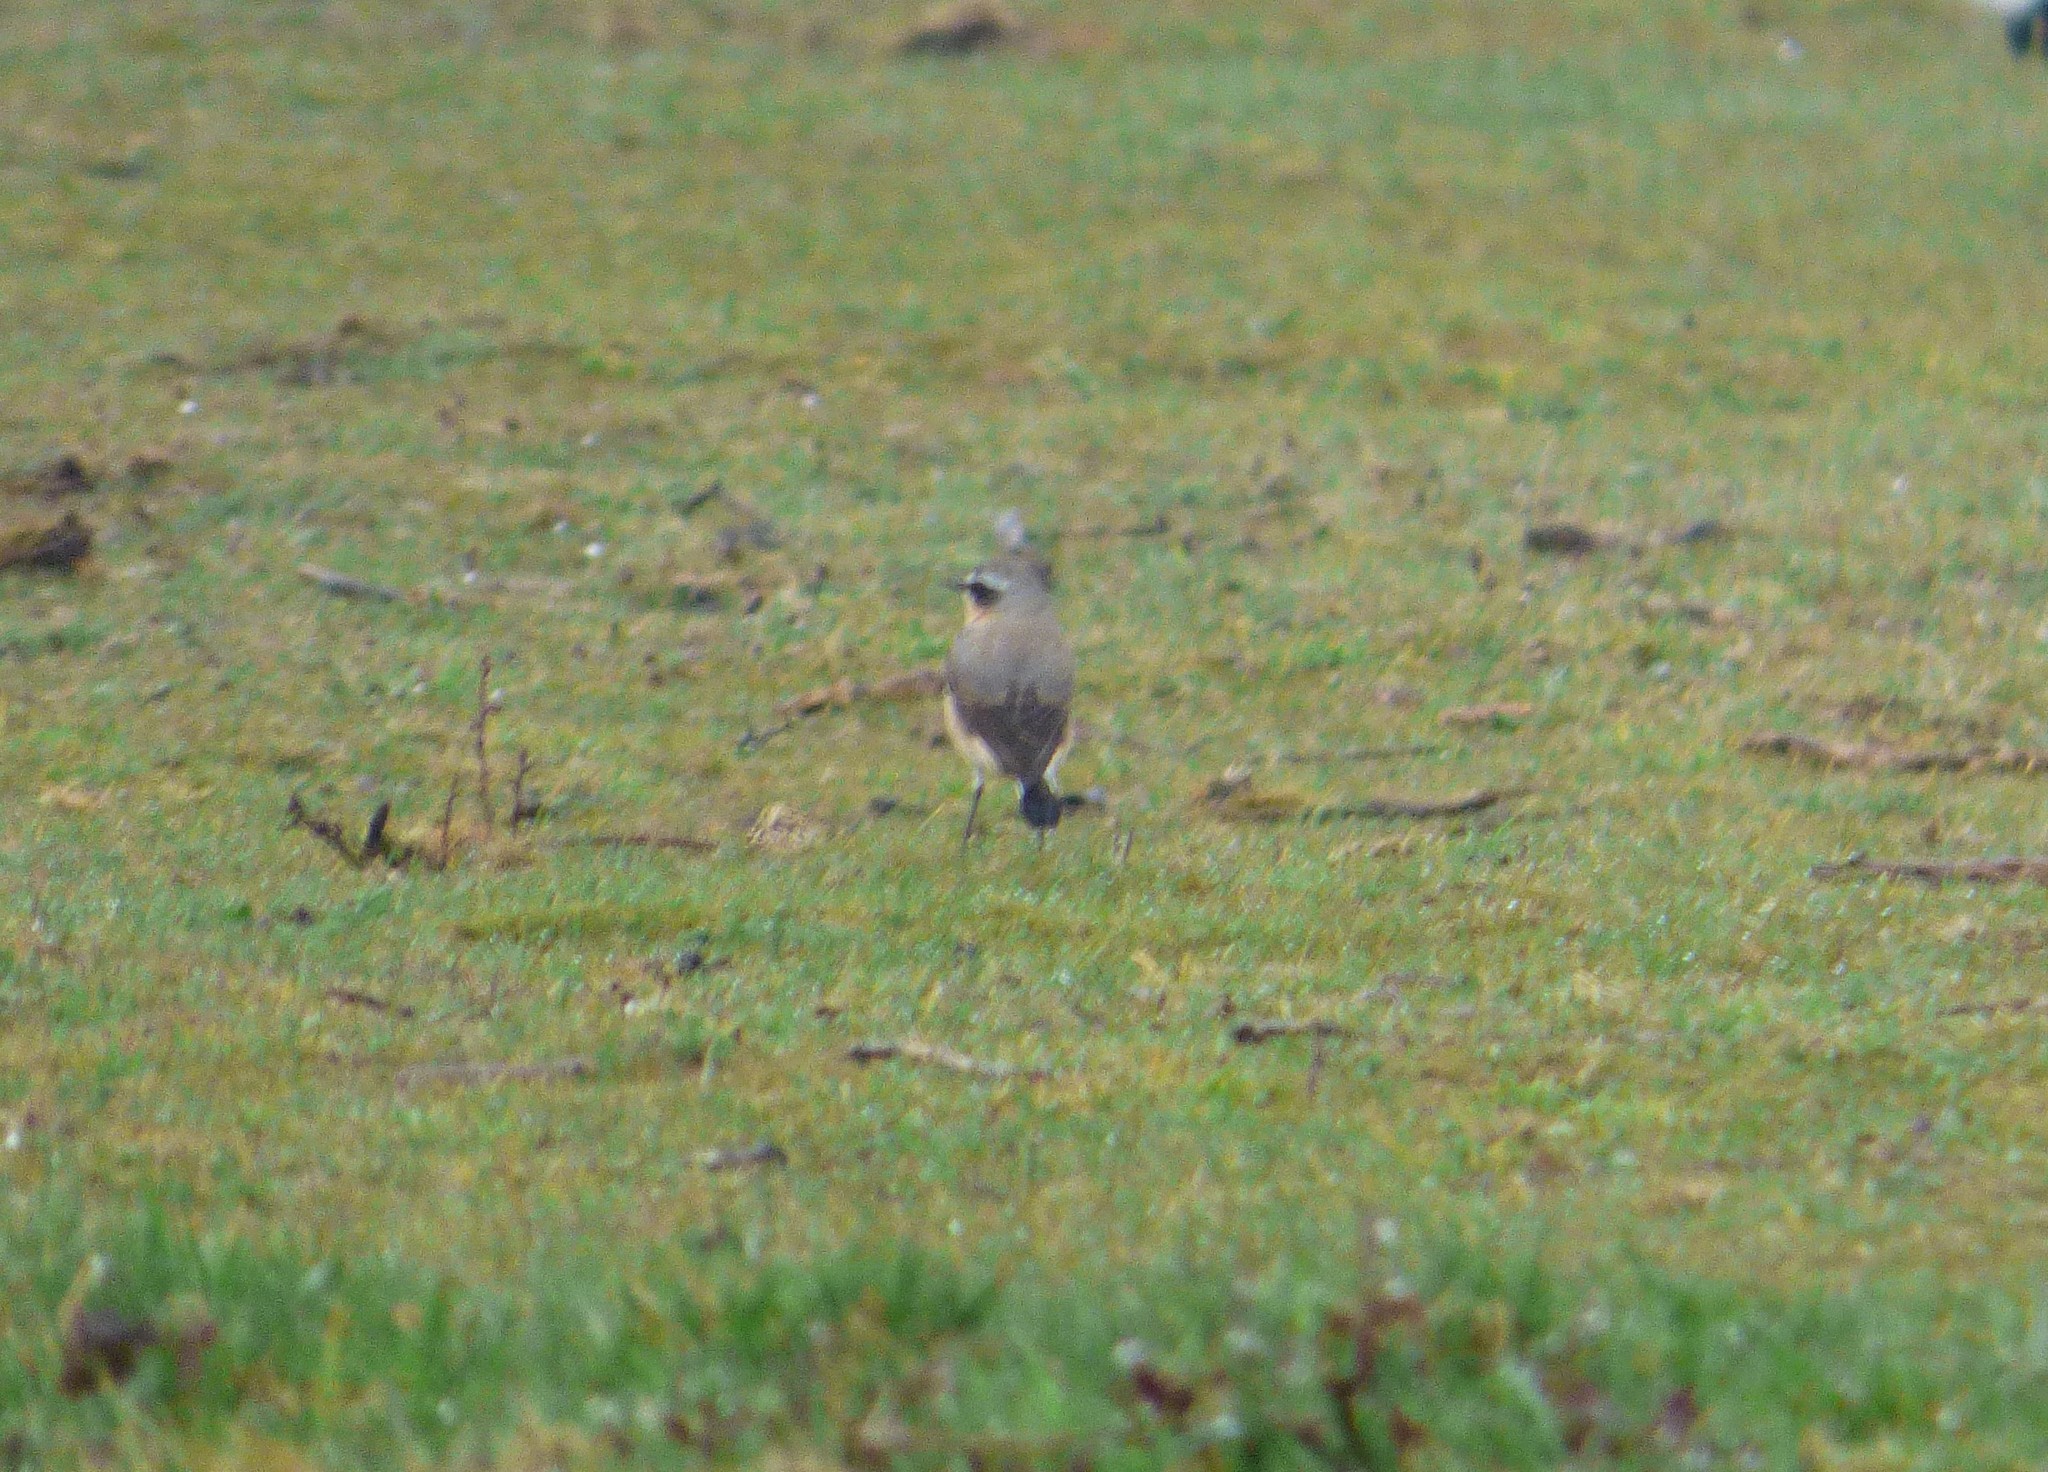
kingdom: Animalia
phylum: Chordata
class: Aves
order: Passeriformes
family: Muscicapidae
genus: Oenanthe
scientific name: Oenanthe oenanthe
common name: Northern wheatear
